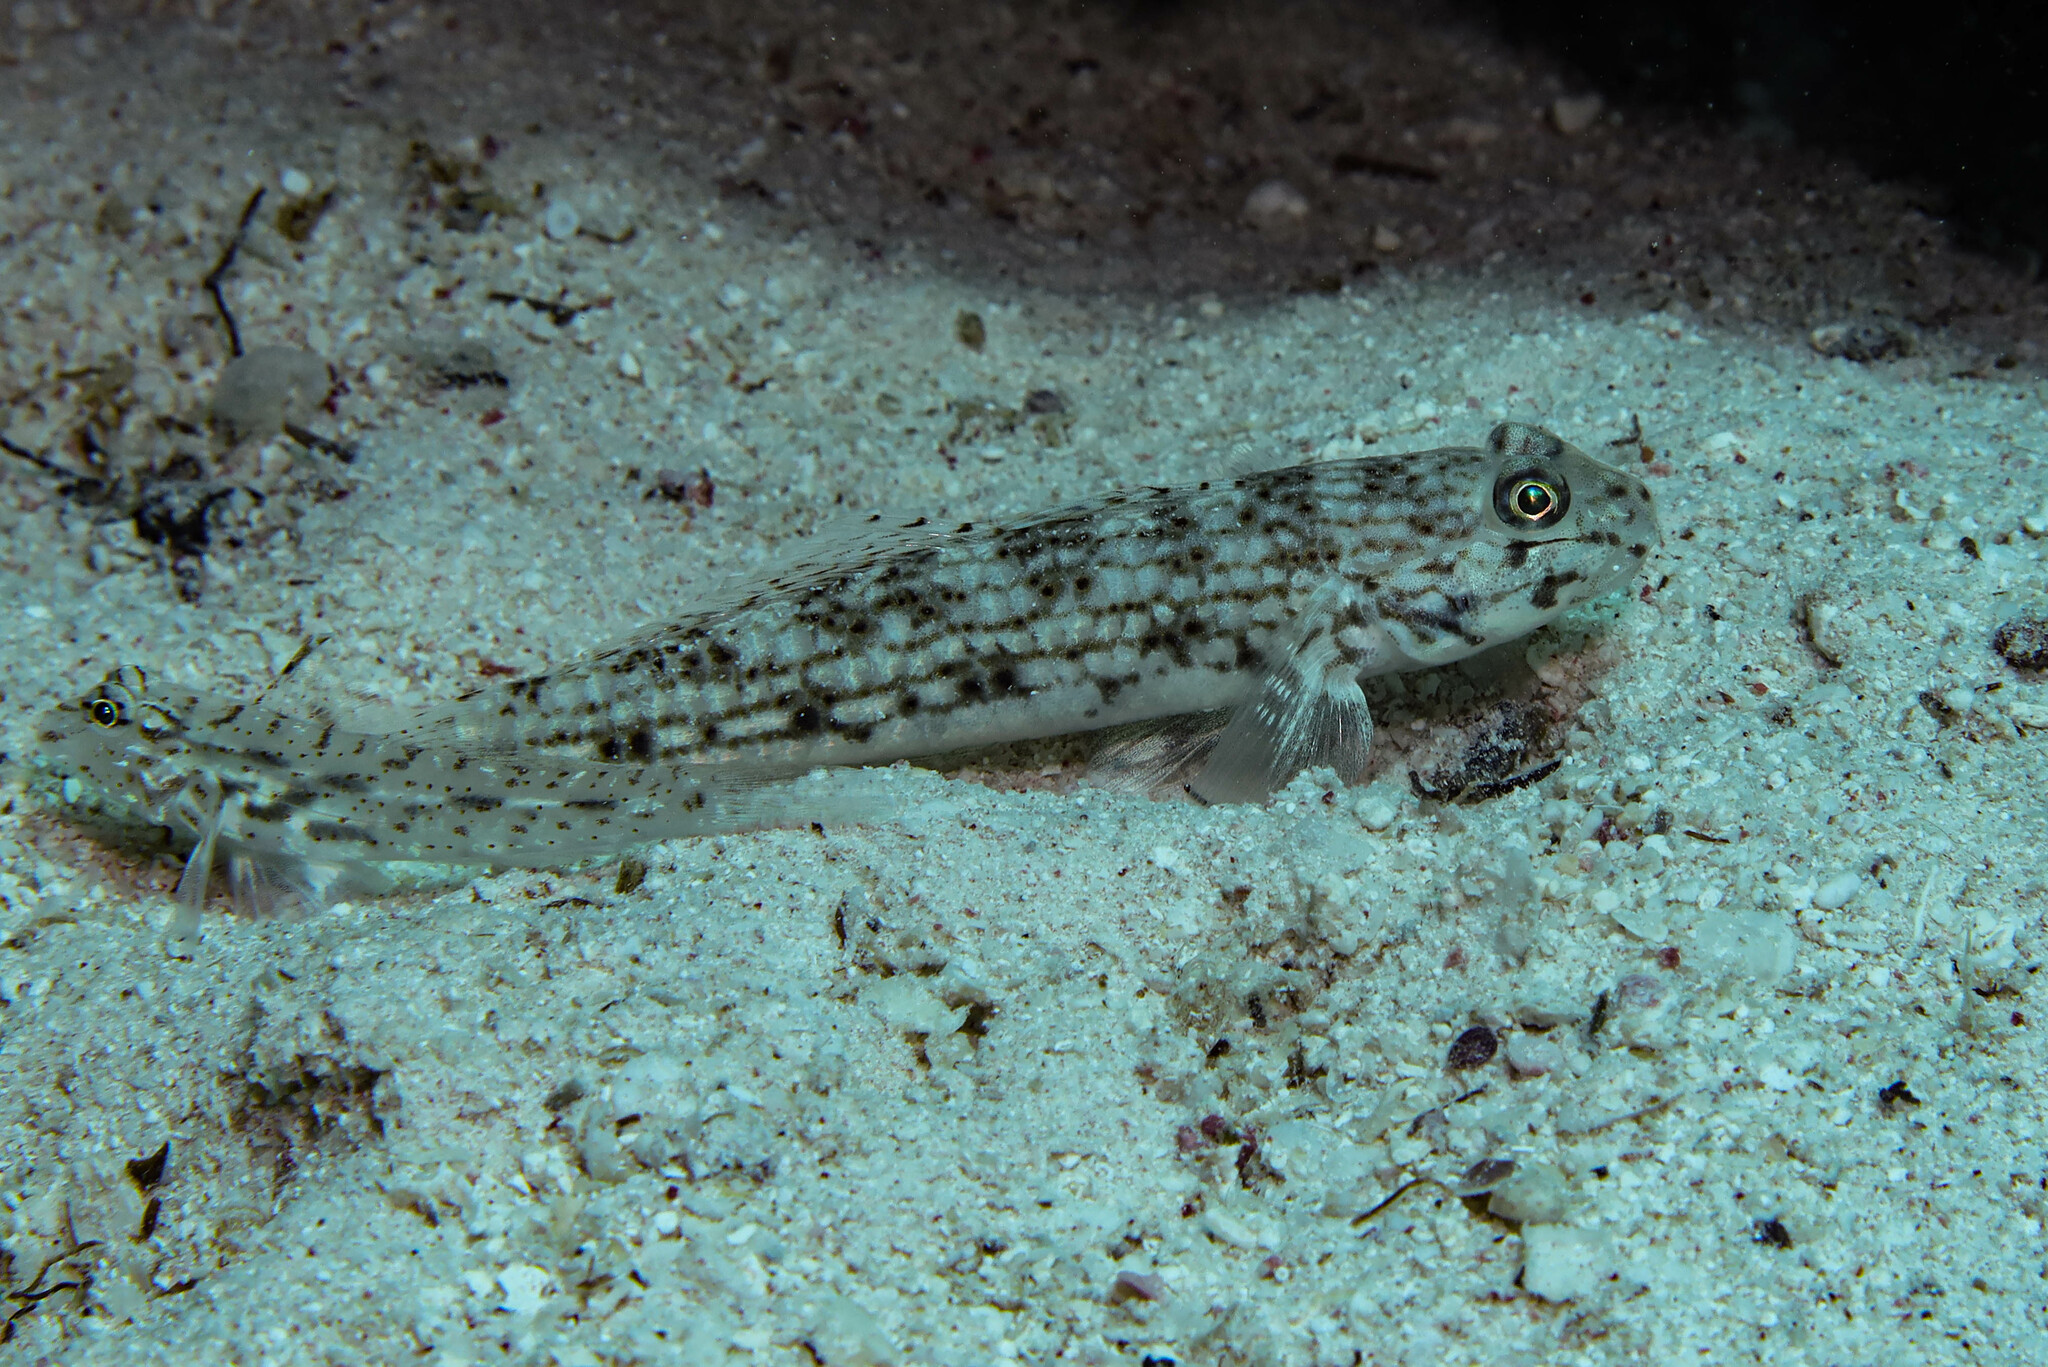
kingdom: Animalia
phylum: Chordata
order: Perciformes
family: Gobiidae
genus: Istigobius
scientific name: Istigobius decoratus
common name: Decorated goby
